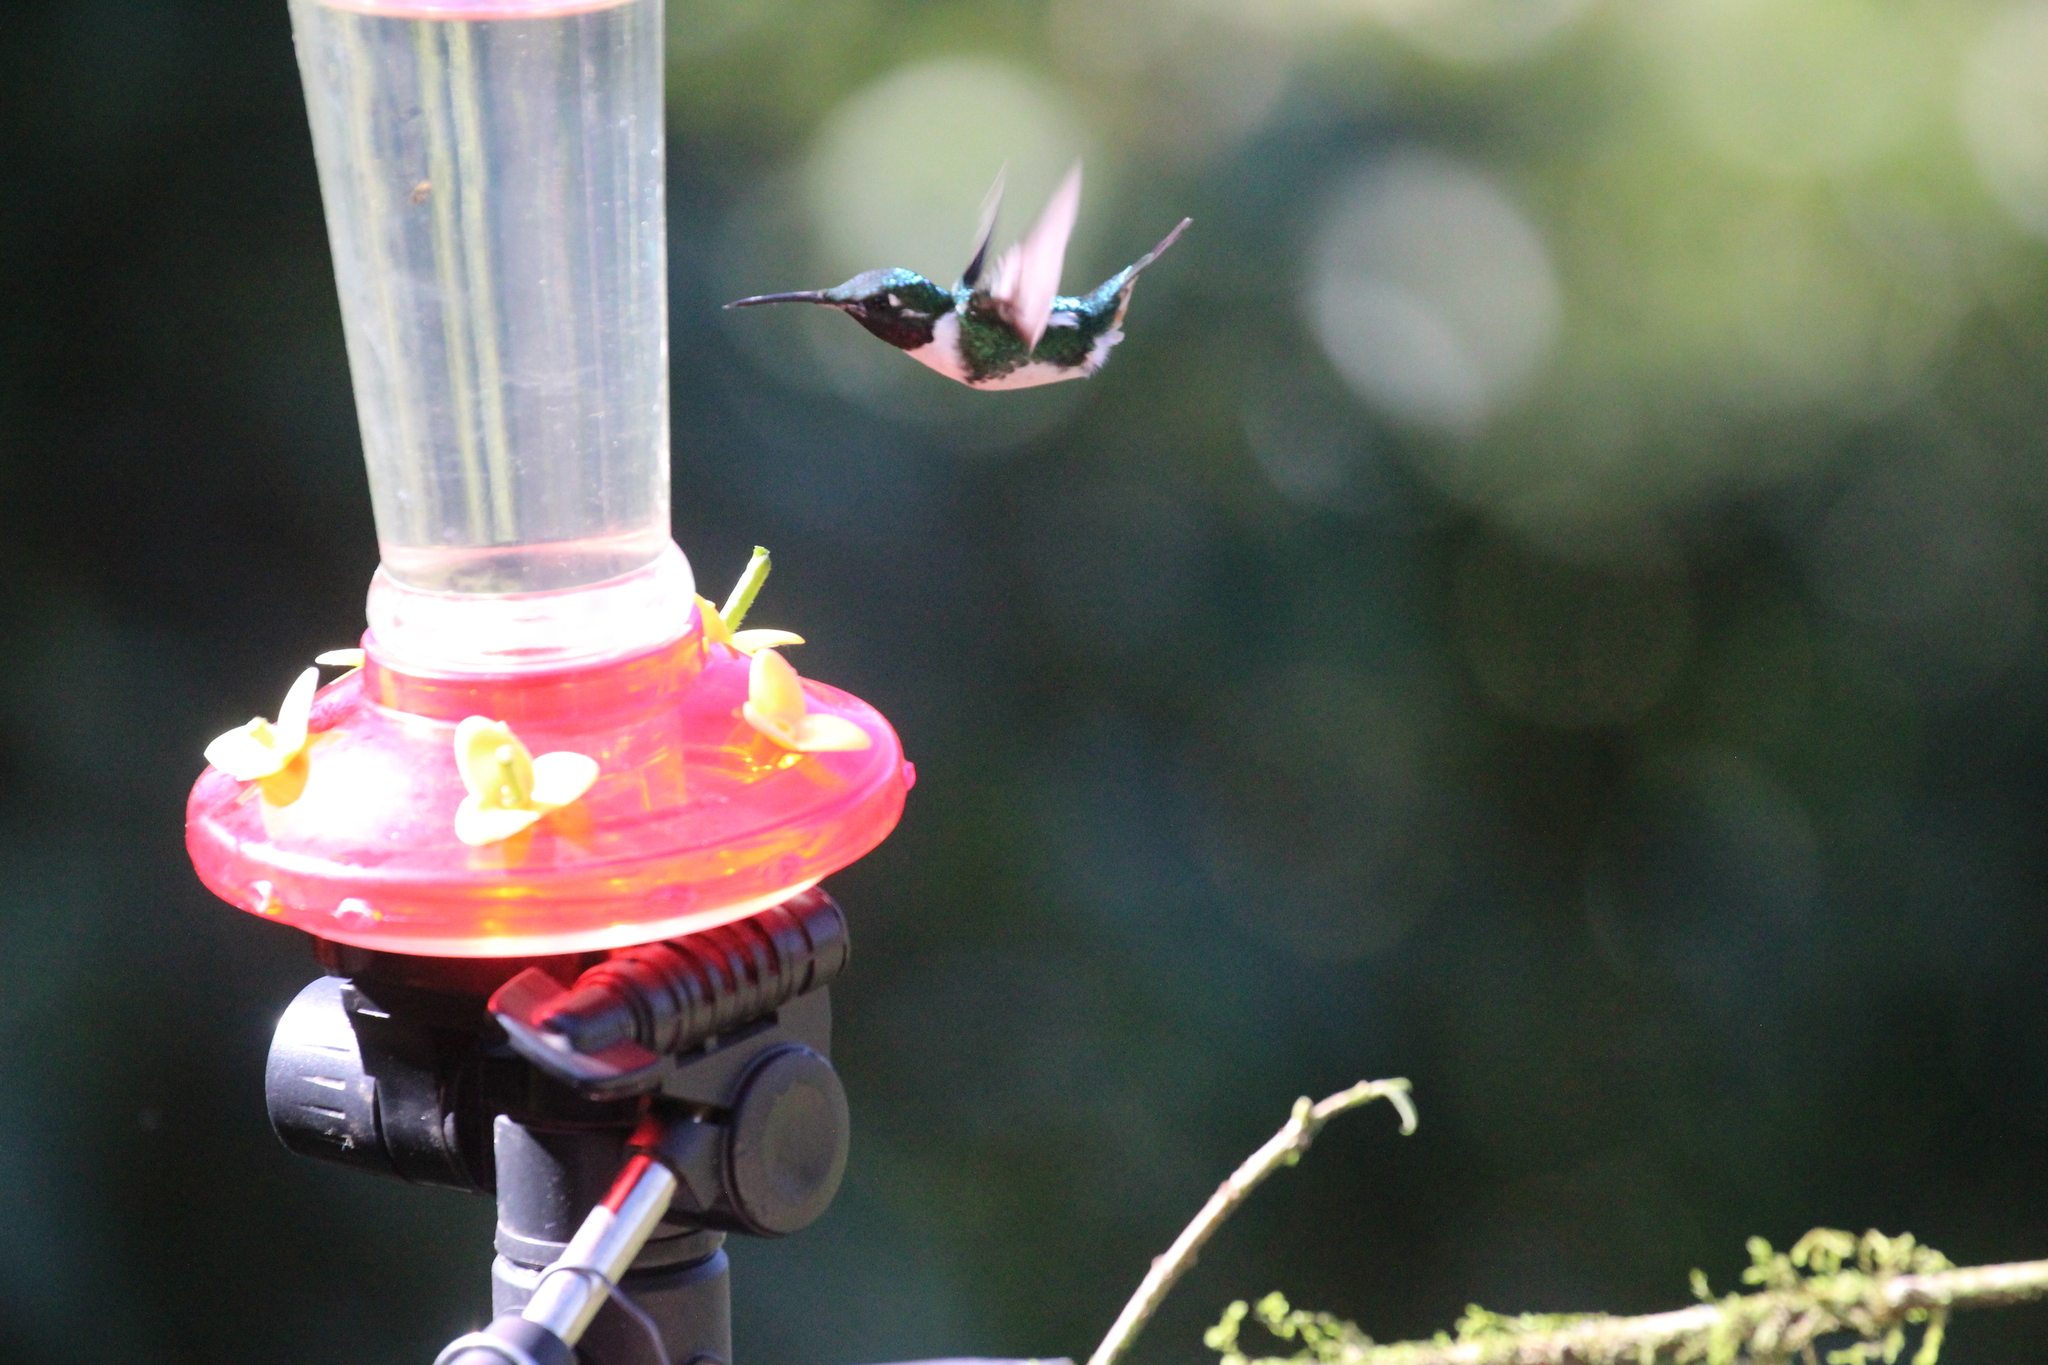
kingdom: Animalia
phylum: Chordata
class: Aves
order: Apodiformes
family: Trochilidae
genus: Chaetocercus
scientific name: Chaetocercus mulsant
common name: White-bellied woodstar
